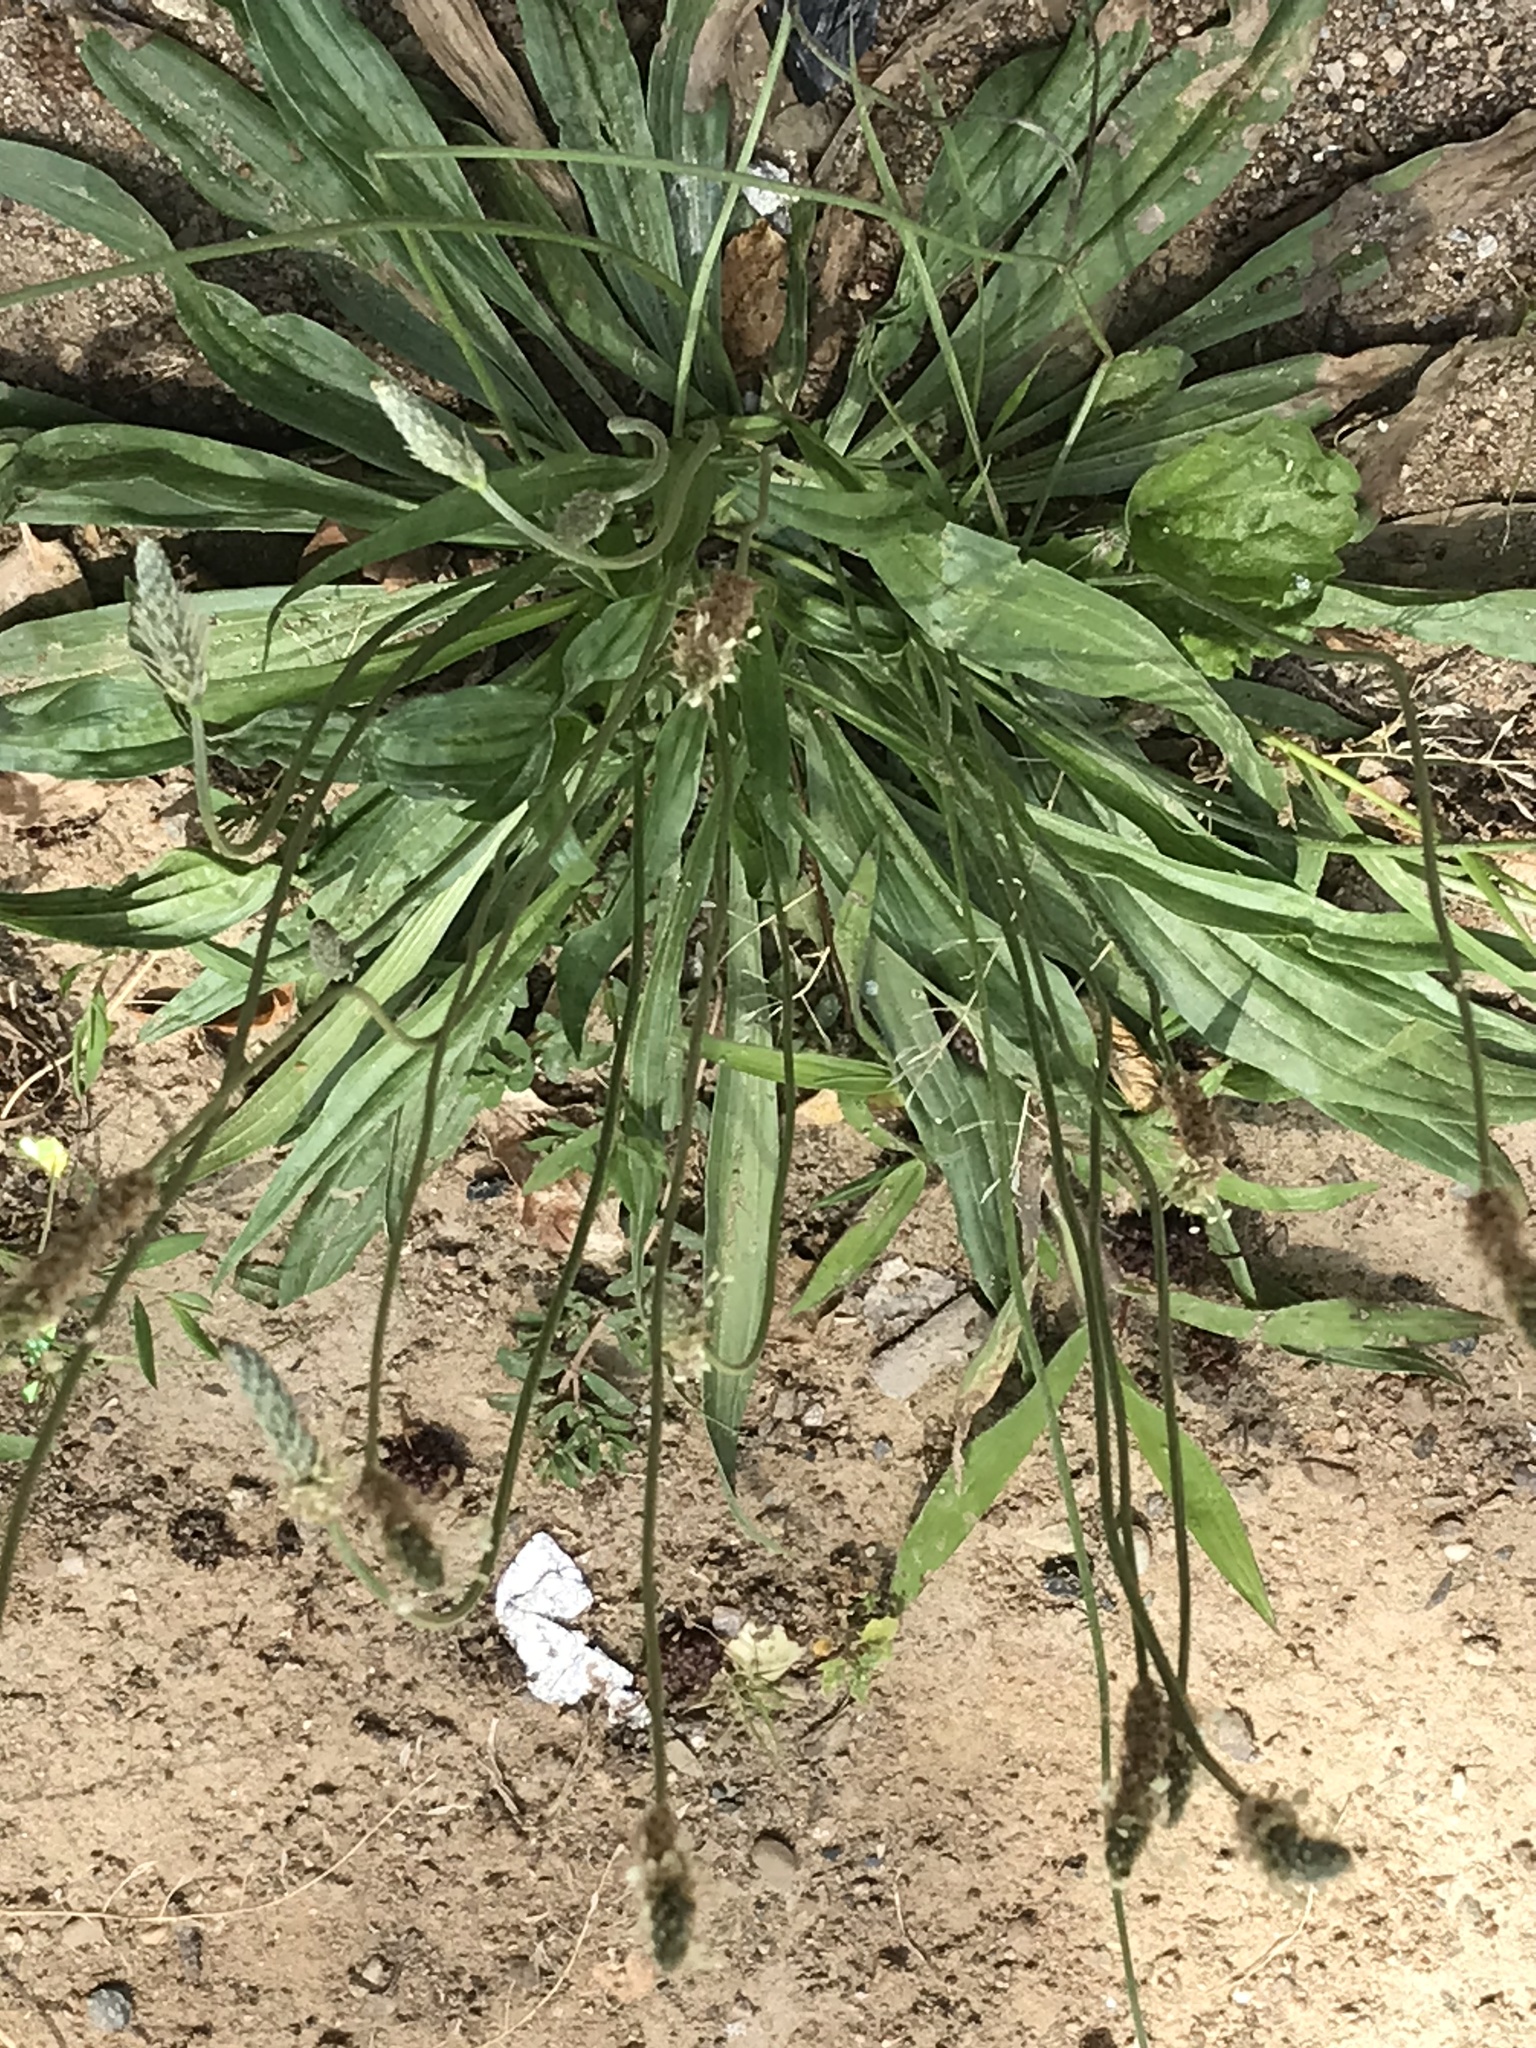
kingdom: Plantae
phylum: Tracheophyta
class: Magnoliopsida
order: Lamiales
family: Plantaginaceae
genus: Plantago
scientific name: Plantago lanceolata
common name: Ribwort plantain
